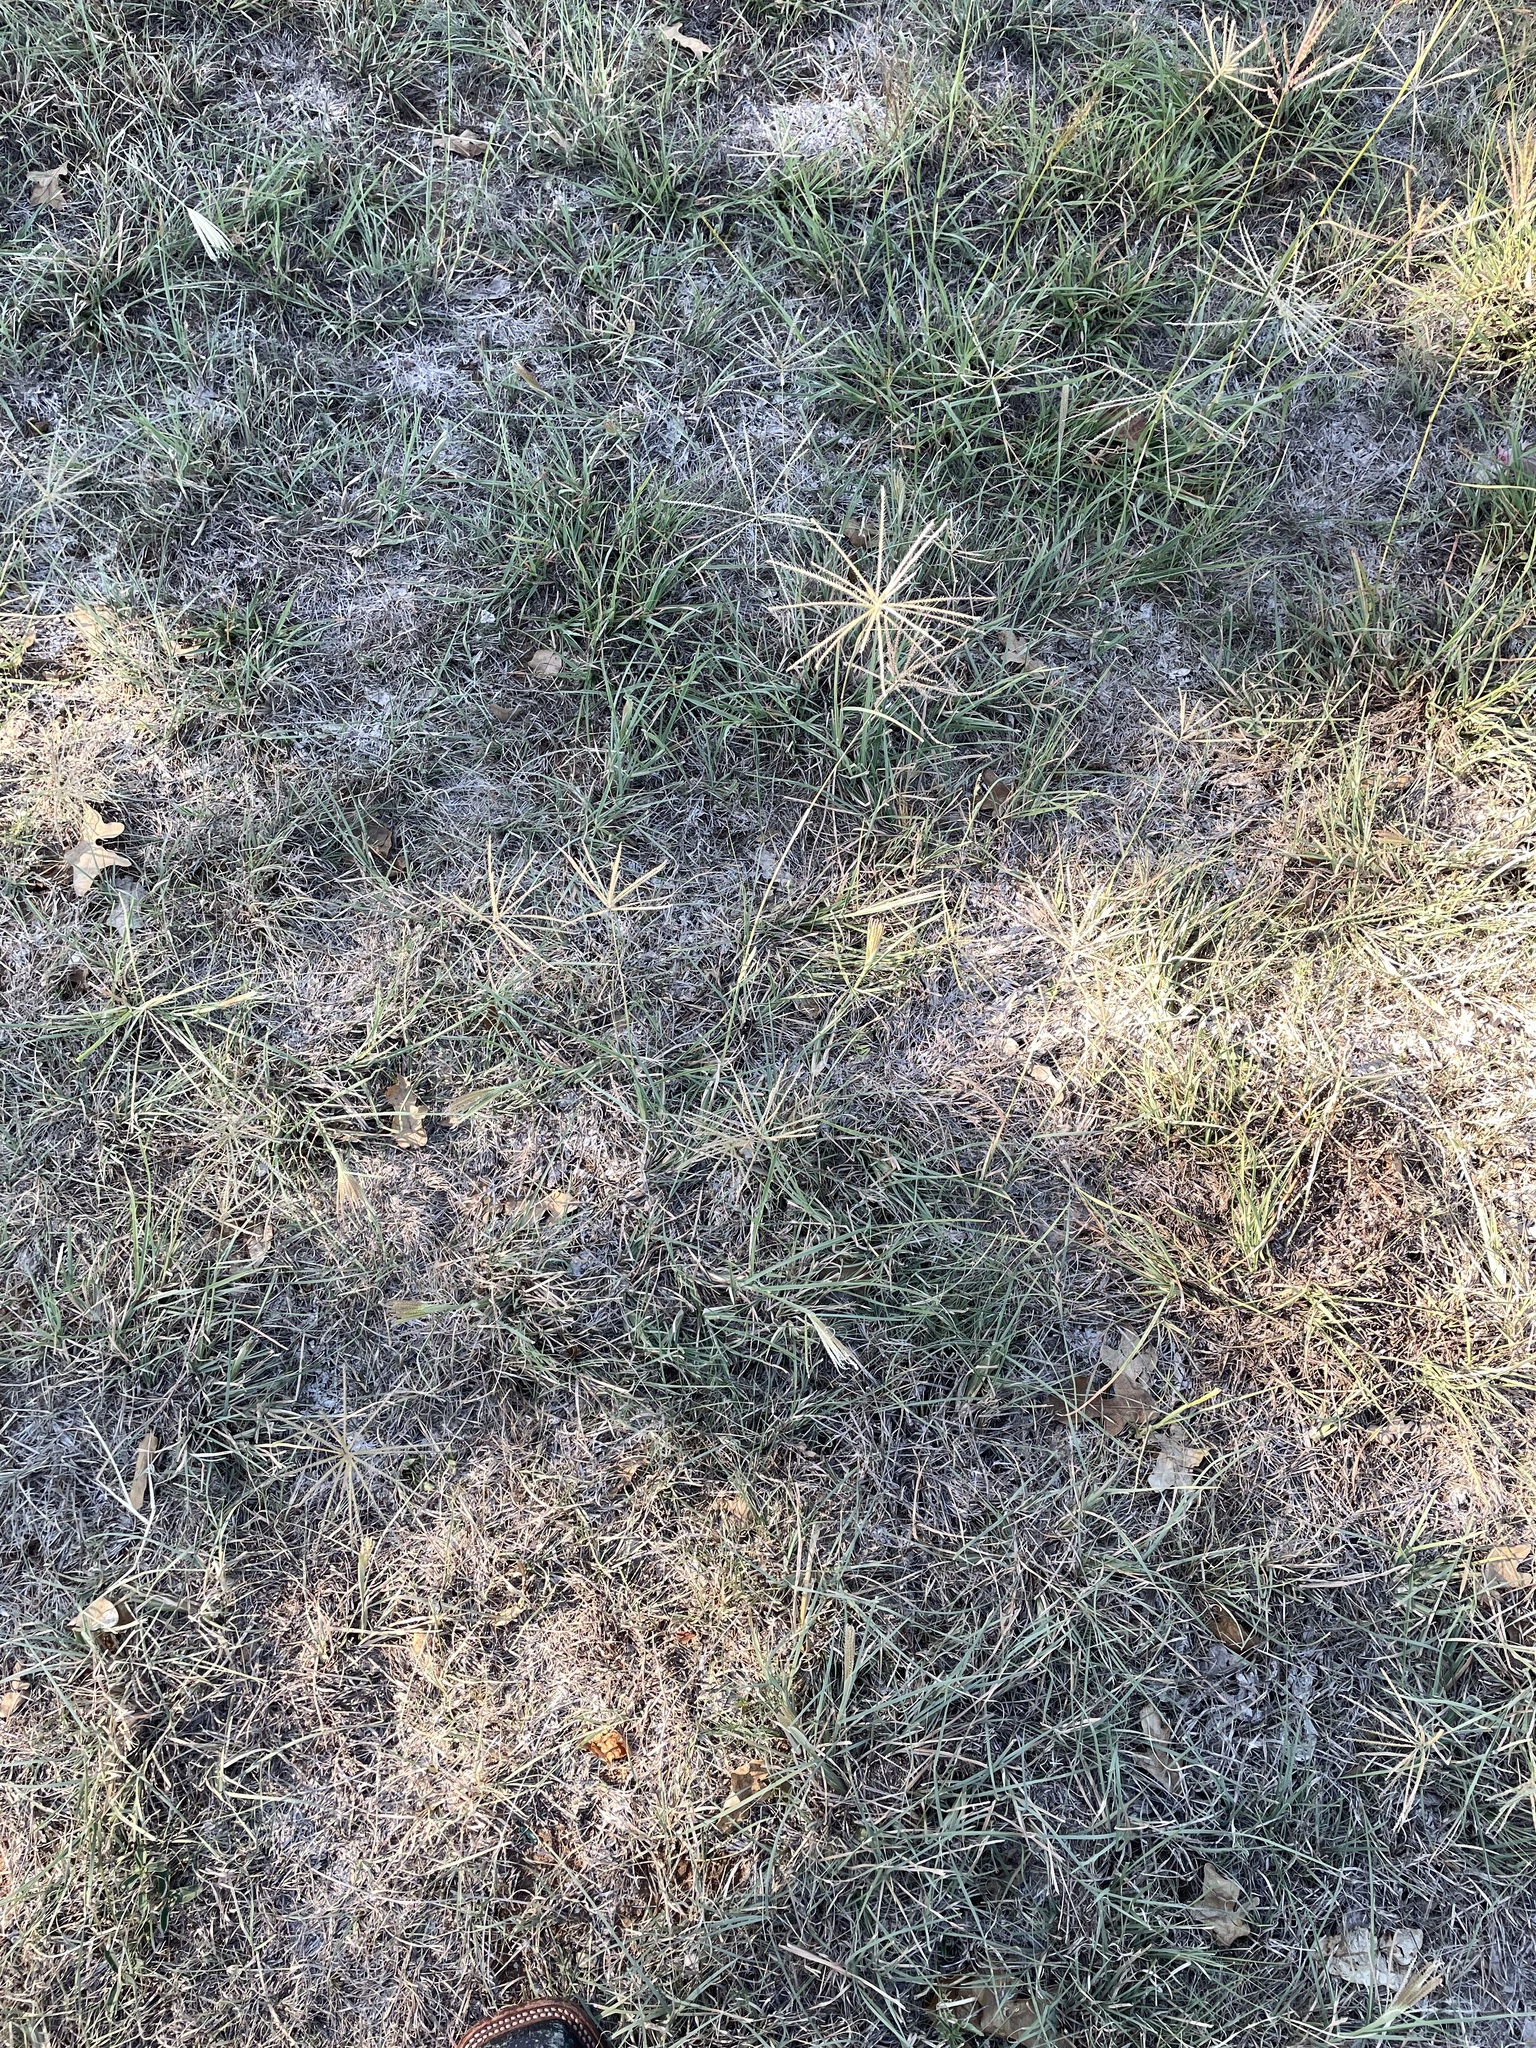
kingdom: Plantae
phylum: Tracheophyta
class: Liliopsida
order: Poales
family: Poaceae
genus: Chloris
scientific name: Chloris subdolichostachya
